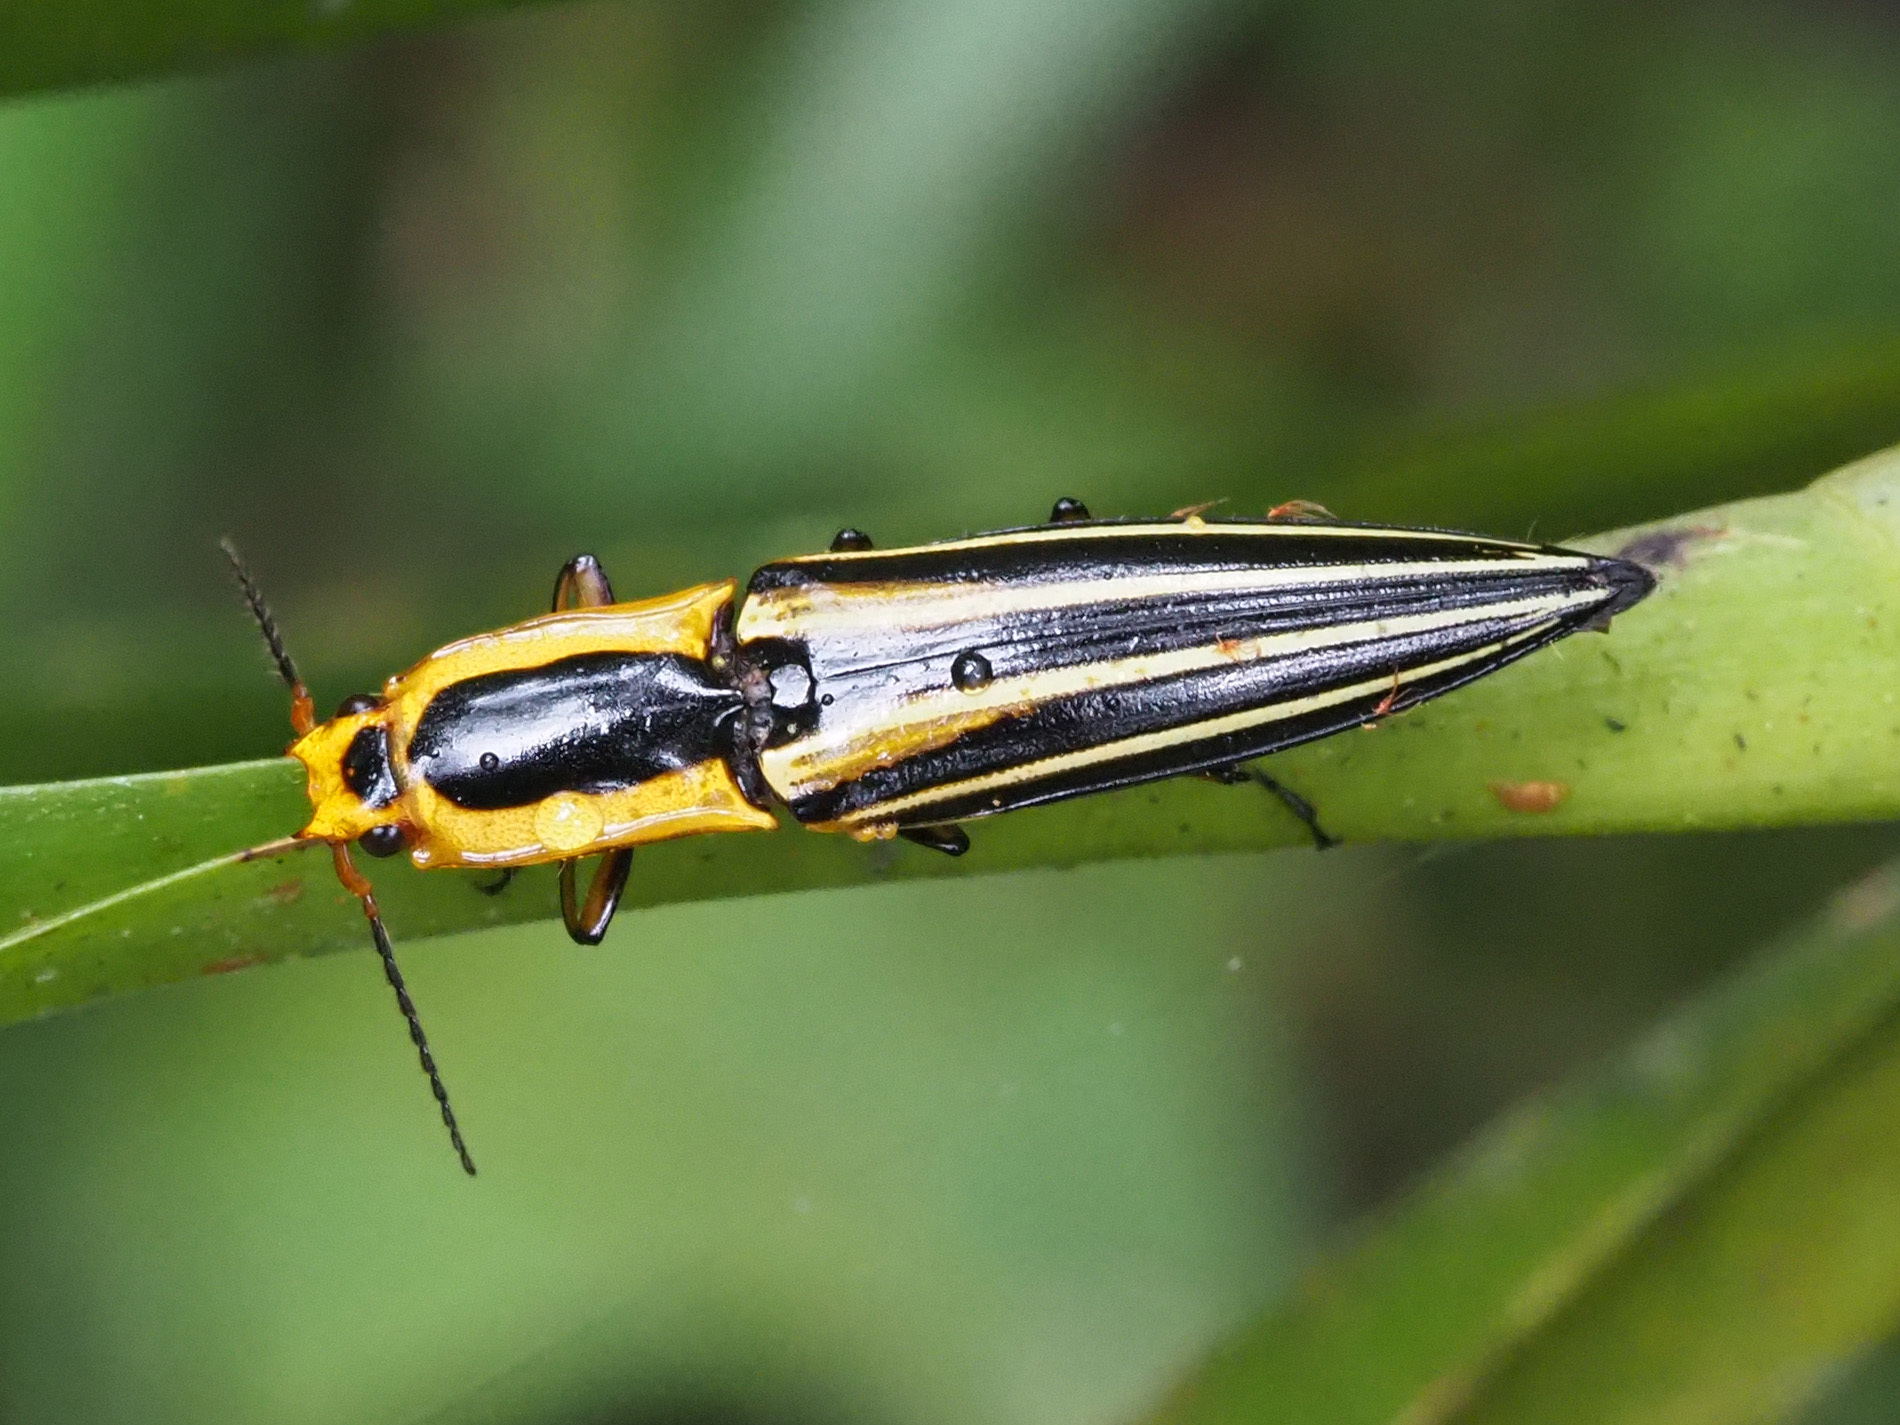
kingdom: Animalia
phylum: Arthropoda
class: Insecta
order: Coleoptera
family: Elateridae
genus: Semiotus
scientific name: Semiotus
